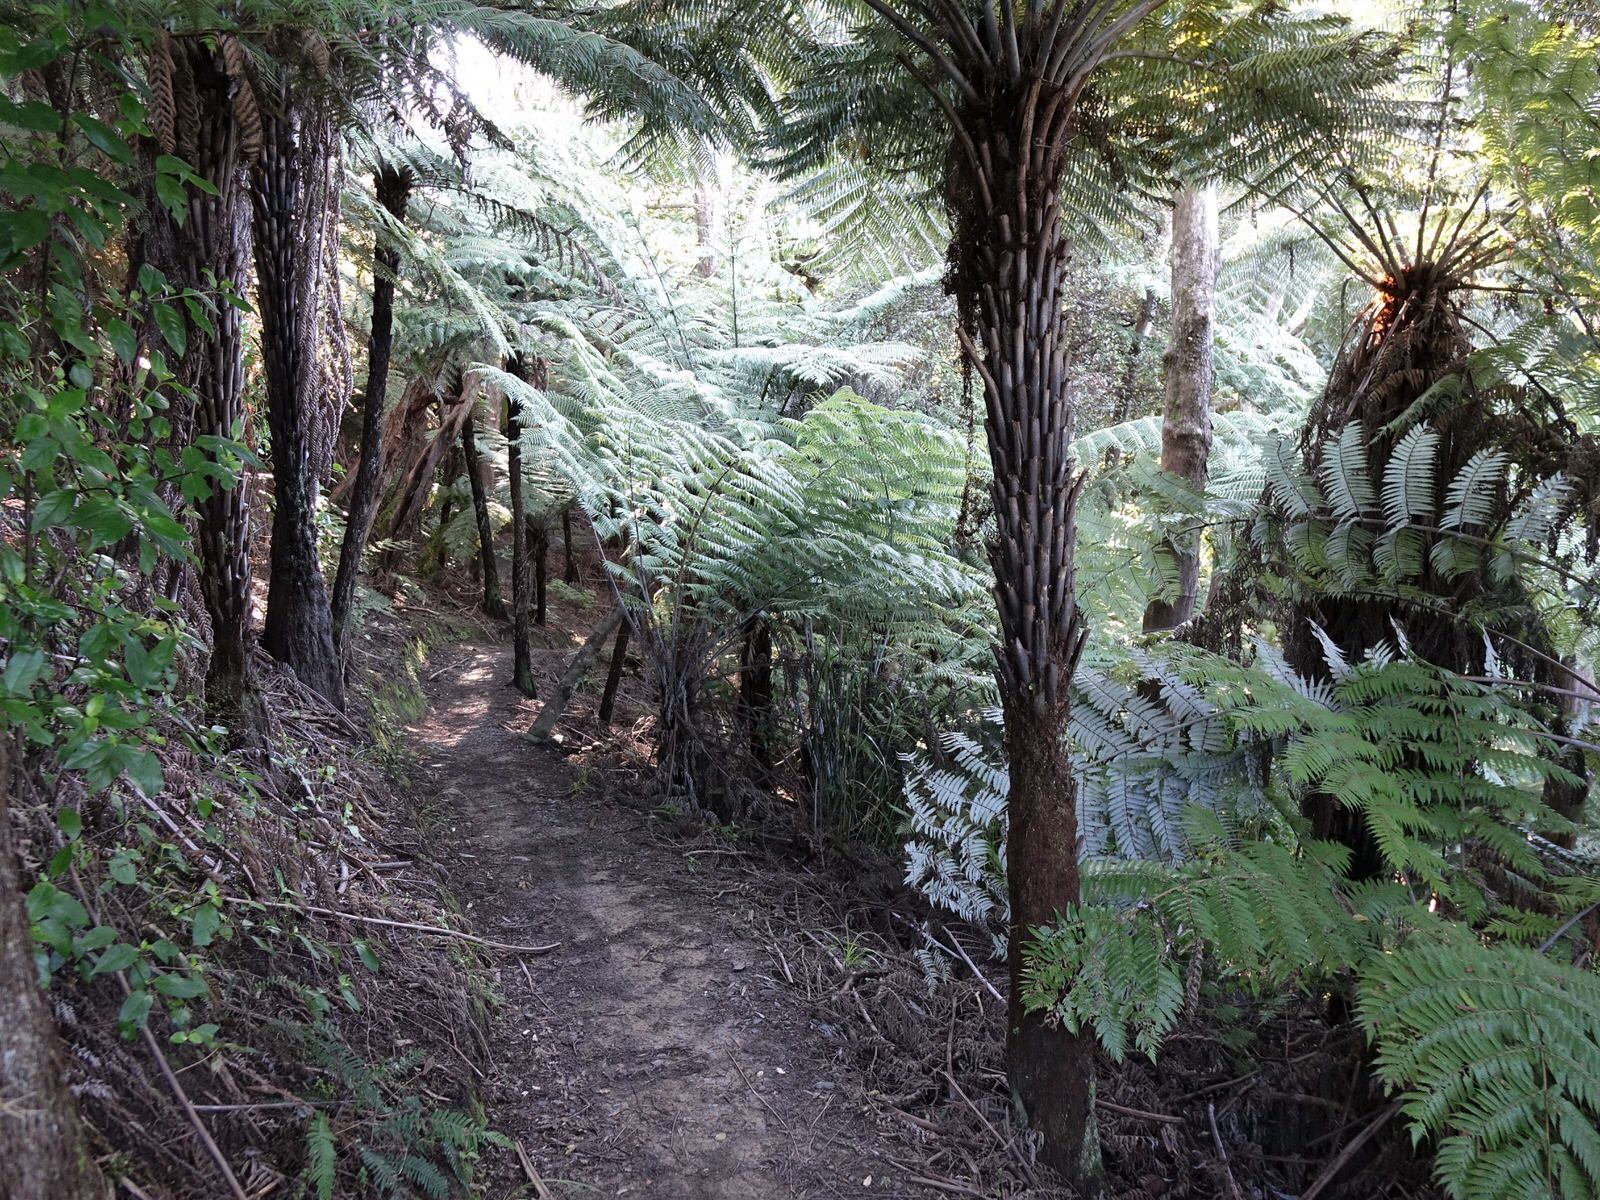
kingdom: Plantae
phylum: Tracheophyta
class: Polypodiopsida
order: Cyatheales
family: Cyatheaceae
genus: Alsophila
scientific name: Alsophila dealbata
